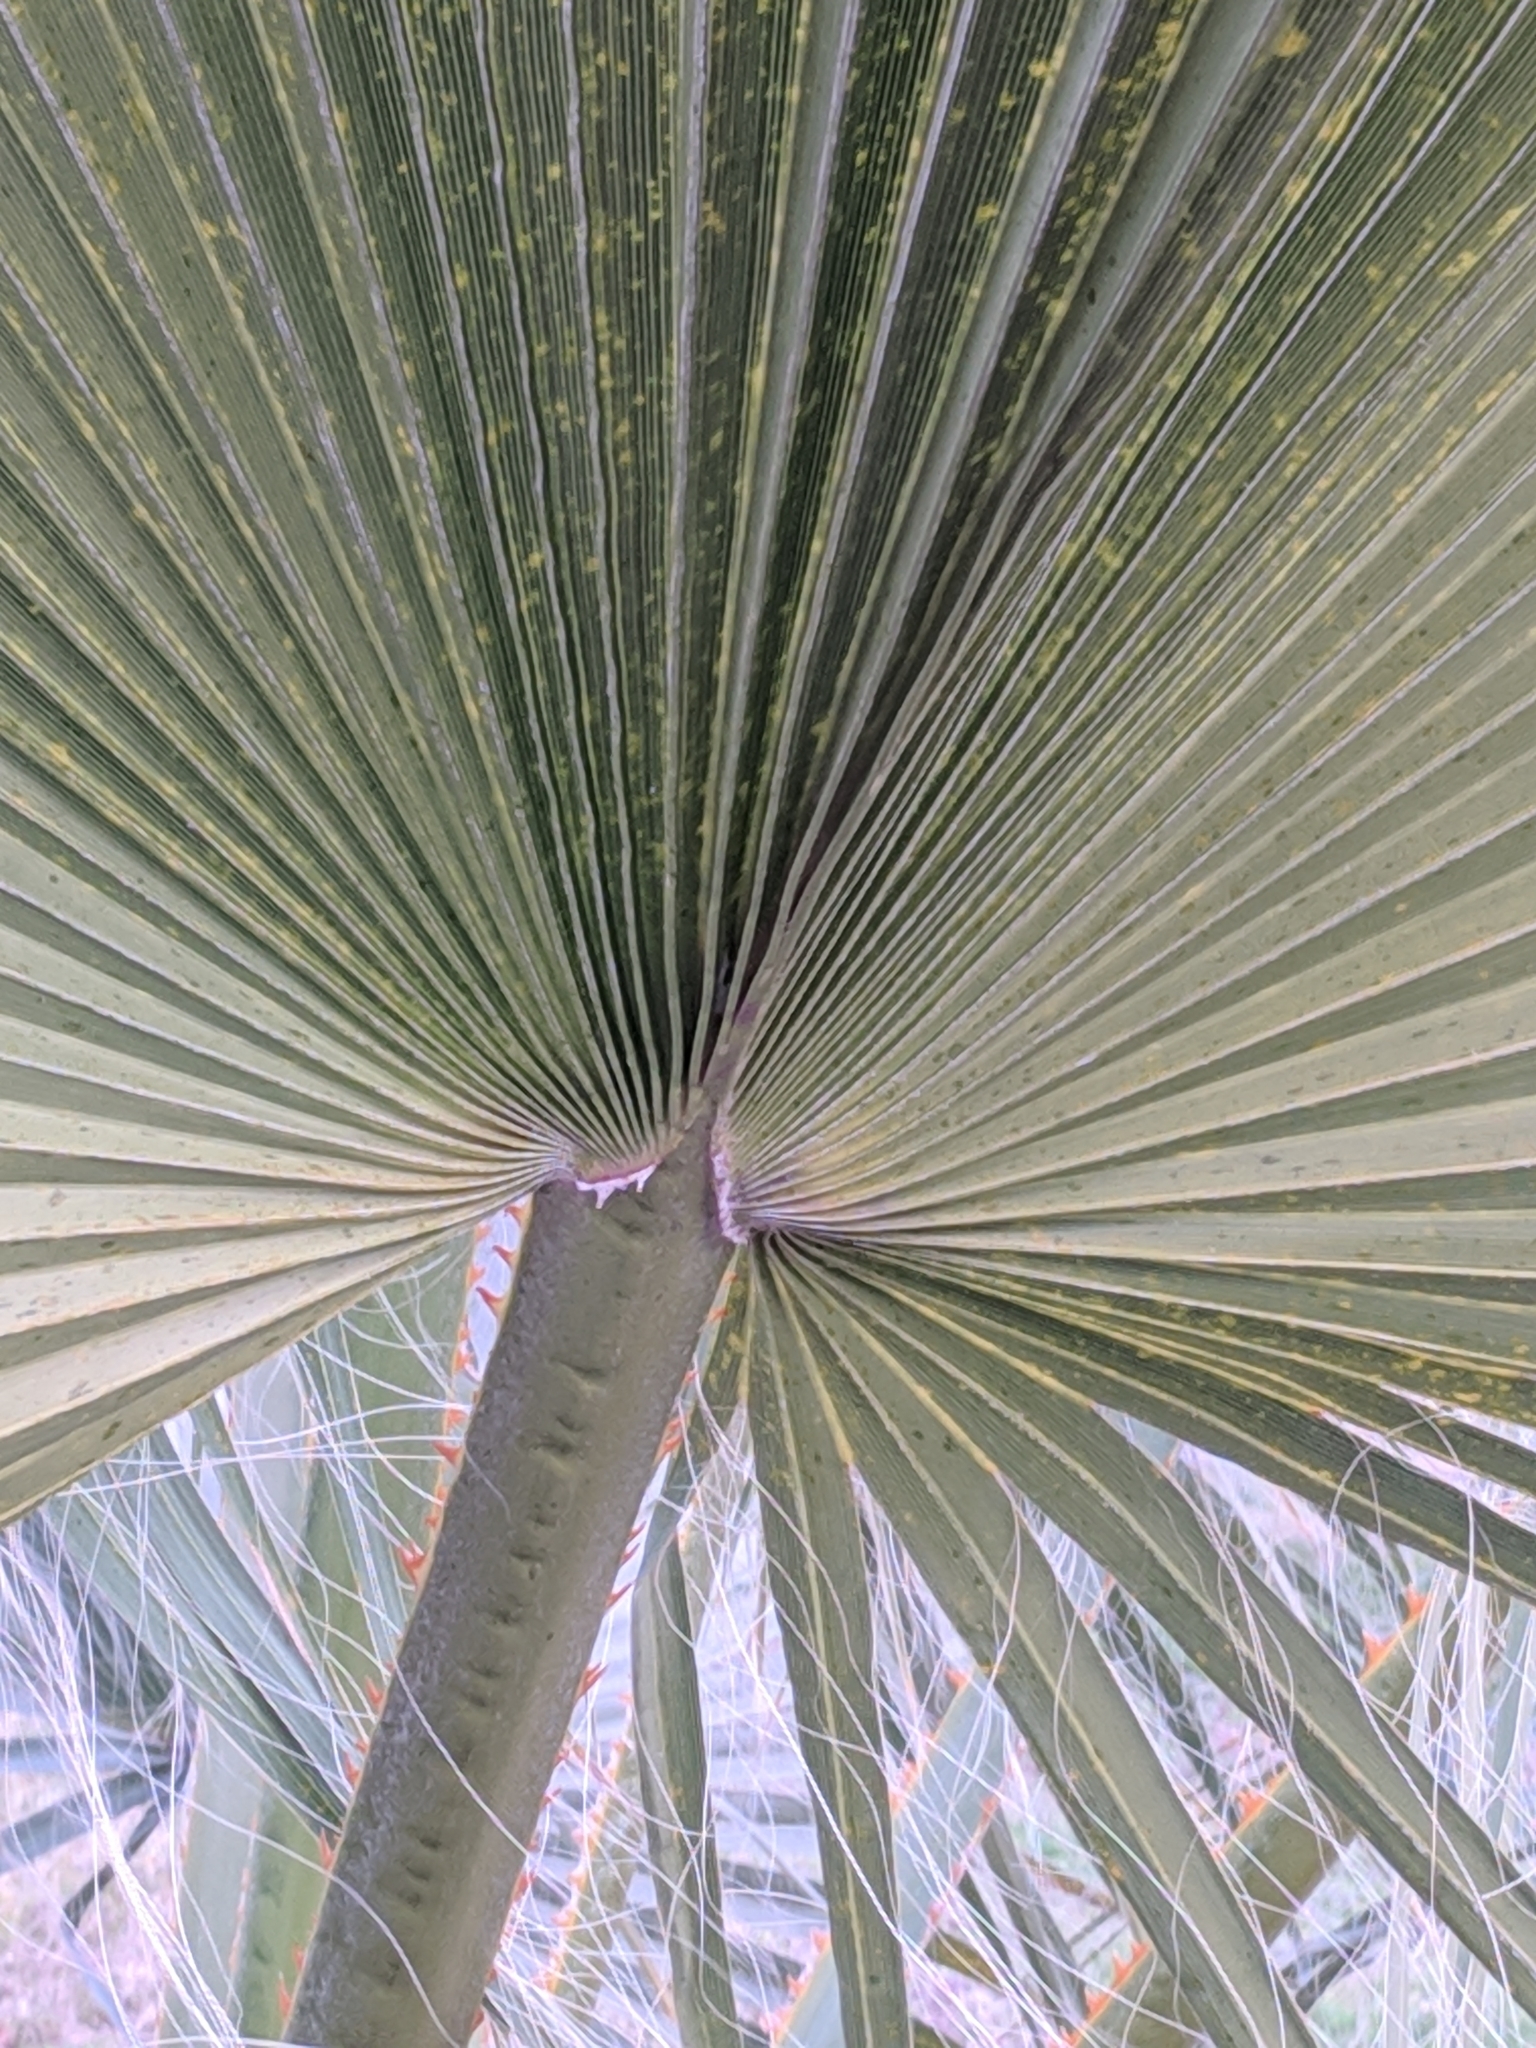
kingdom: Plantae
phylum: Tracheophyta
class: Liliopsida
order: Arecales
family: Arecaceae
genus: Washingtonia
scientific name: Washingtonia robusta
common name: Mexican fan palm
